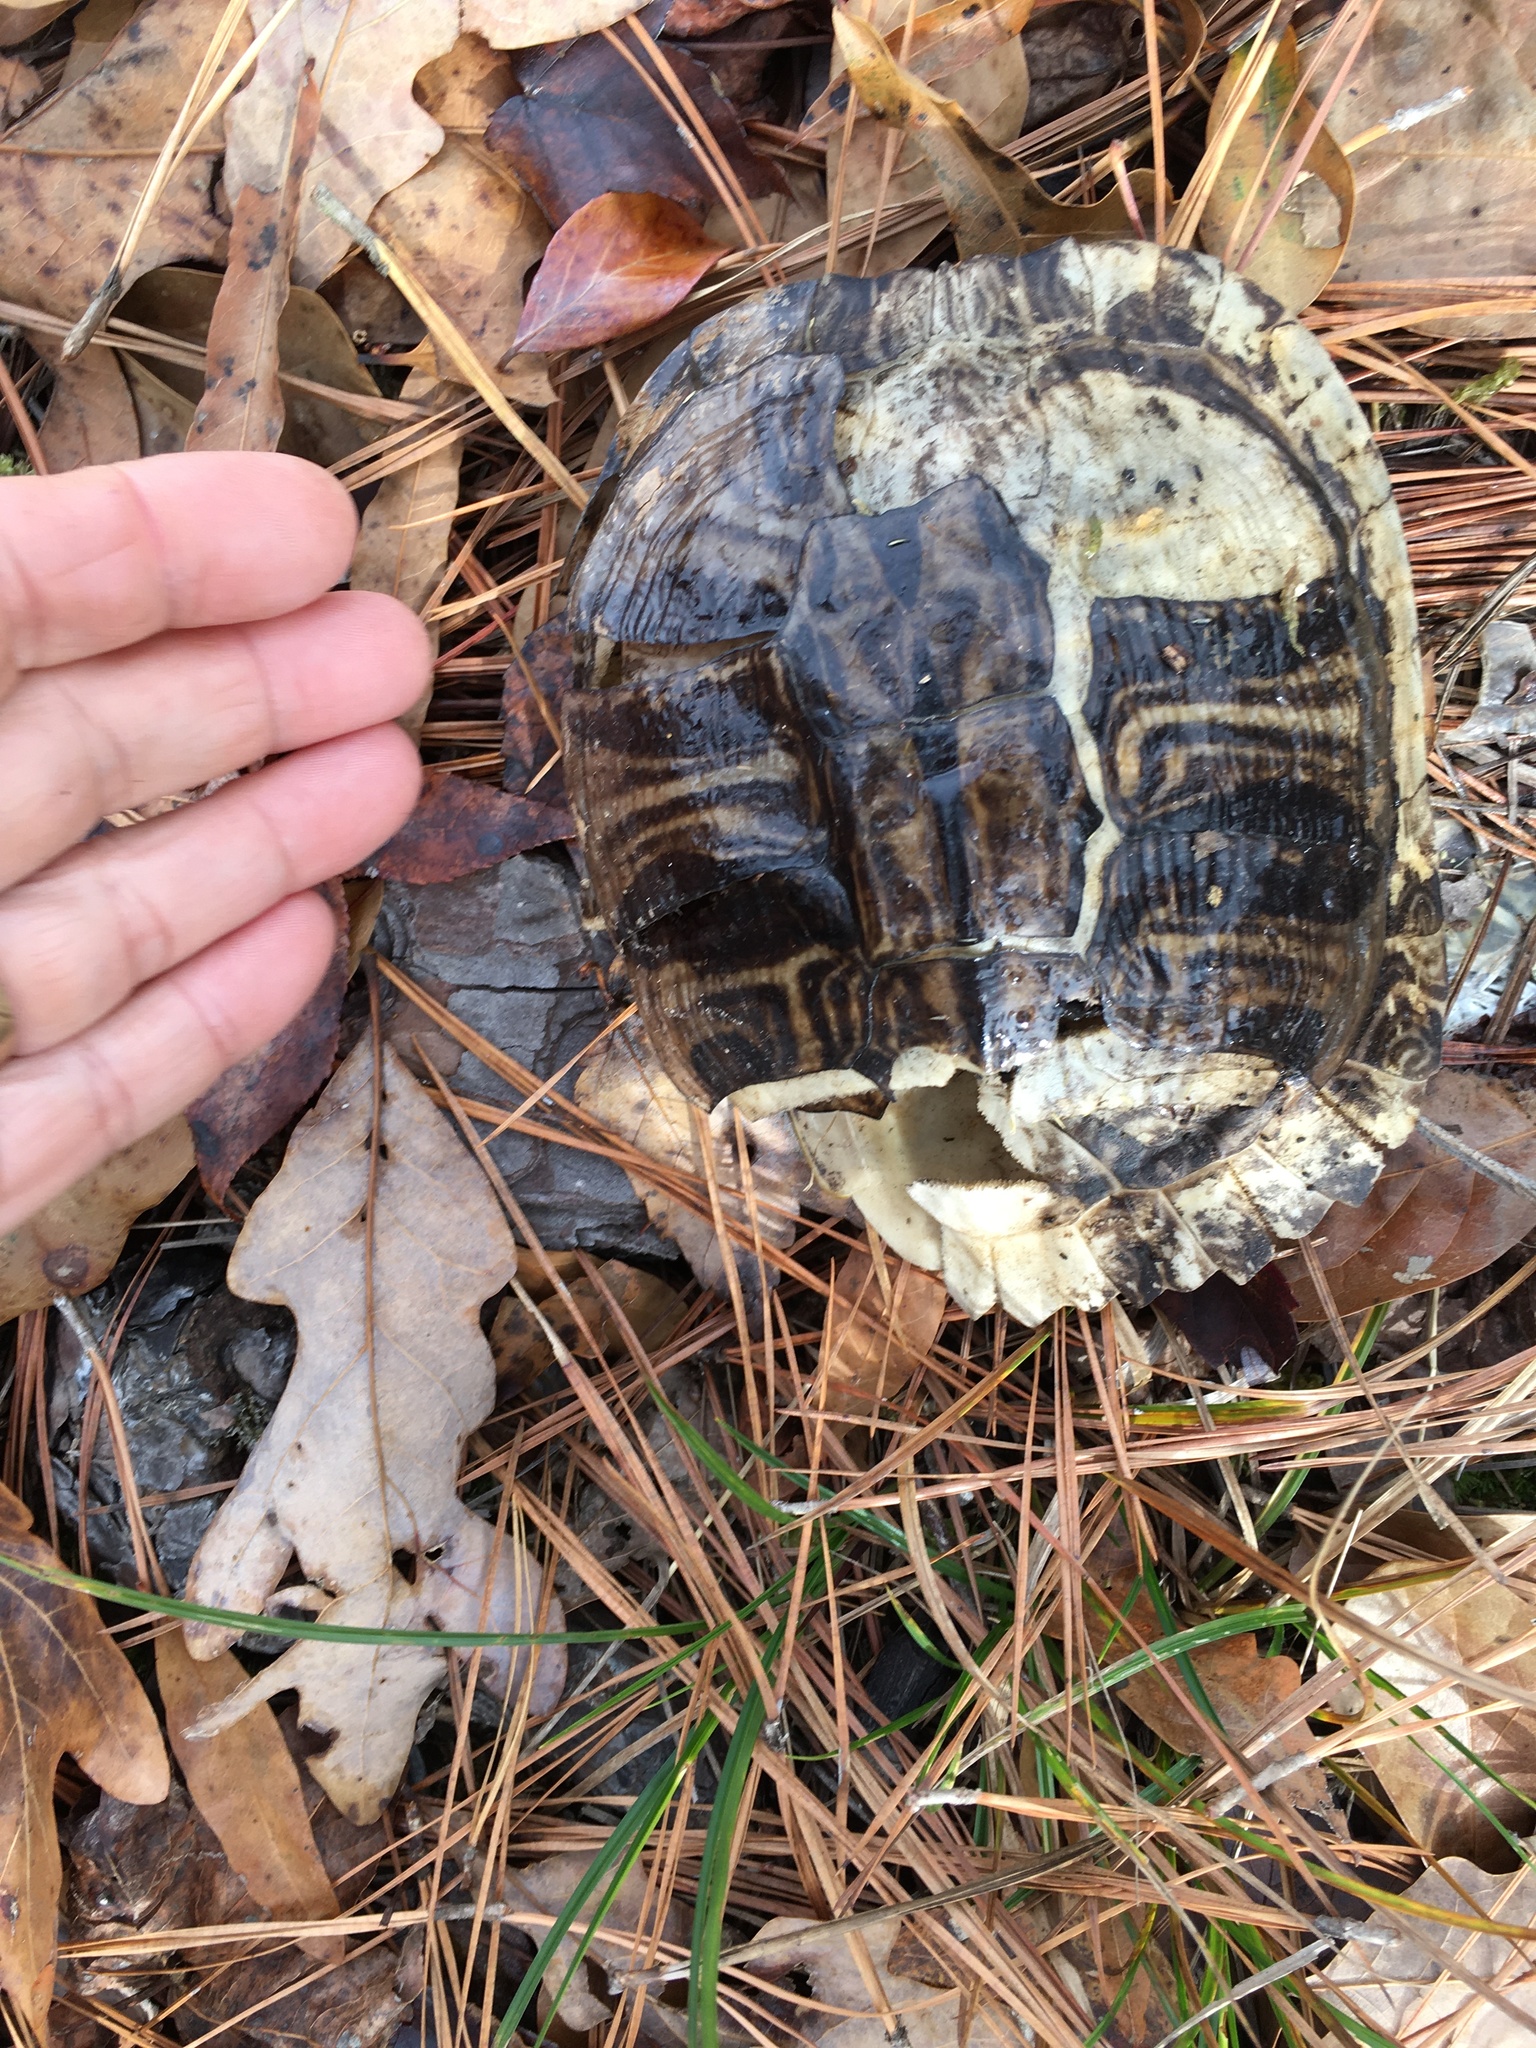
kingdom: Animalia
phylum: Chordata
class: Testudines
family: Emydidae
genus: Trachemys
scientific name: Trachemys scripta
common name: Slider
